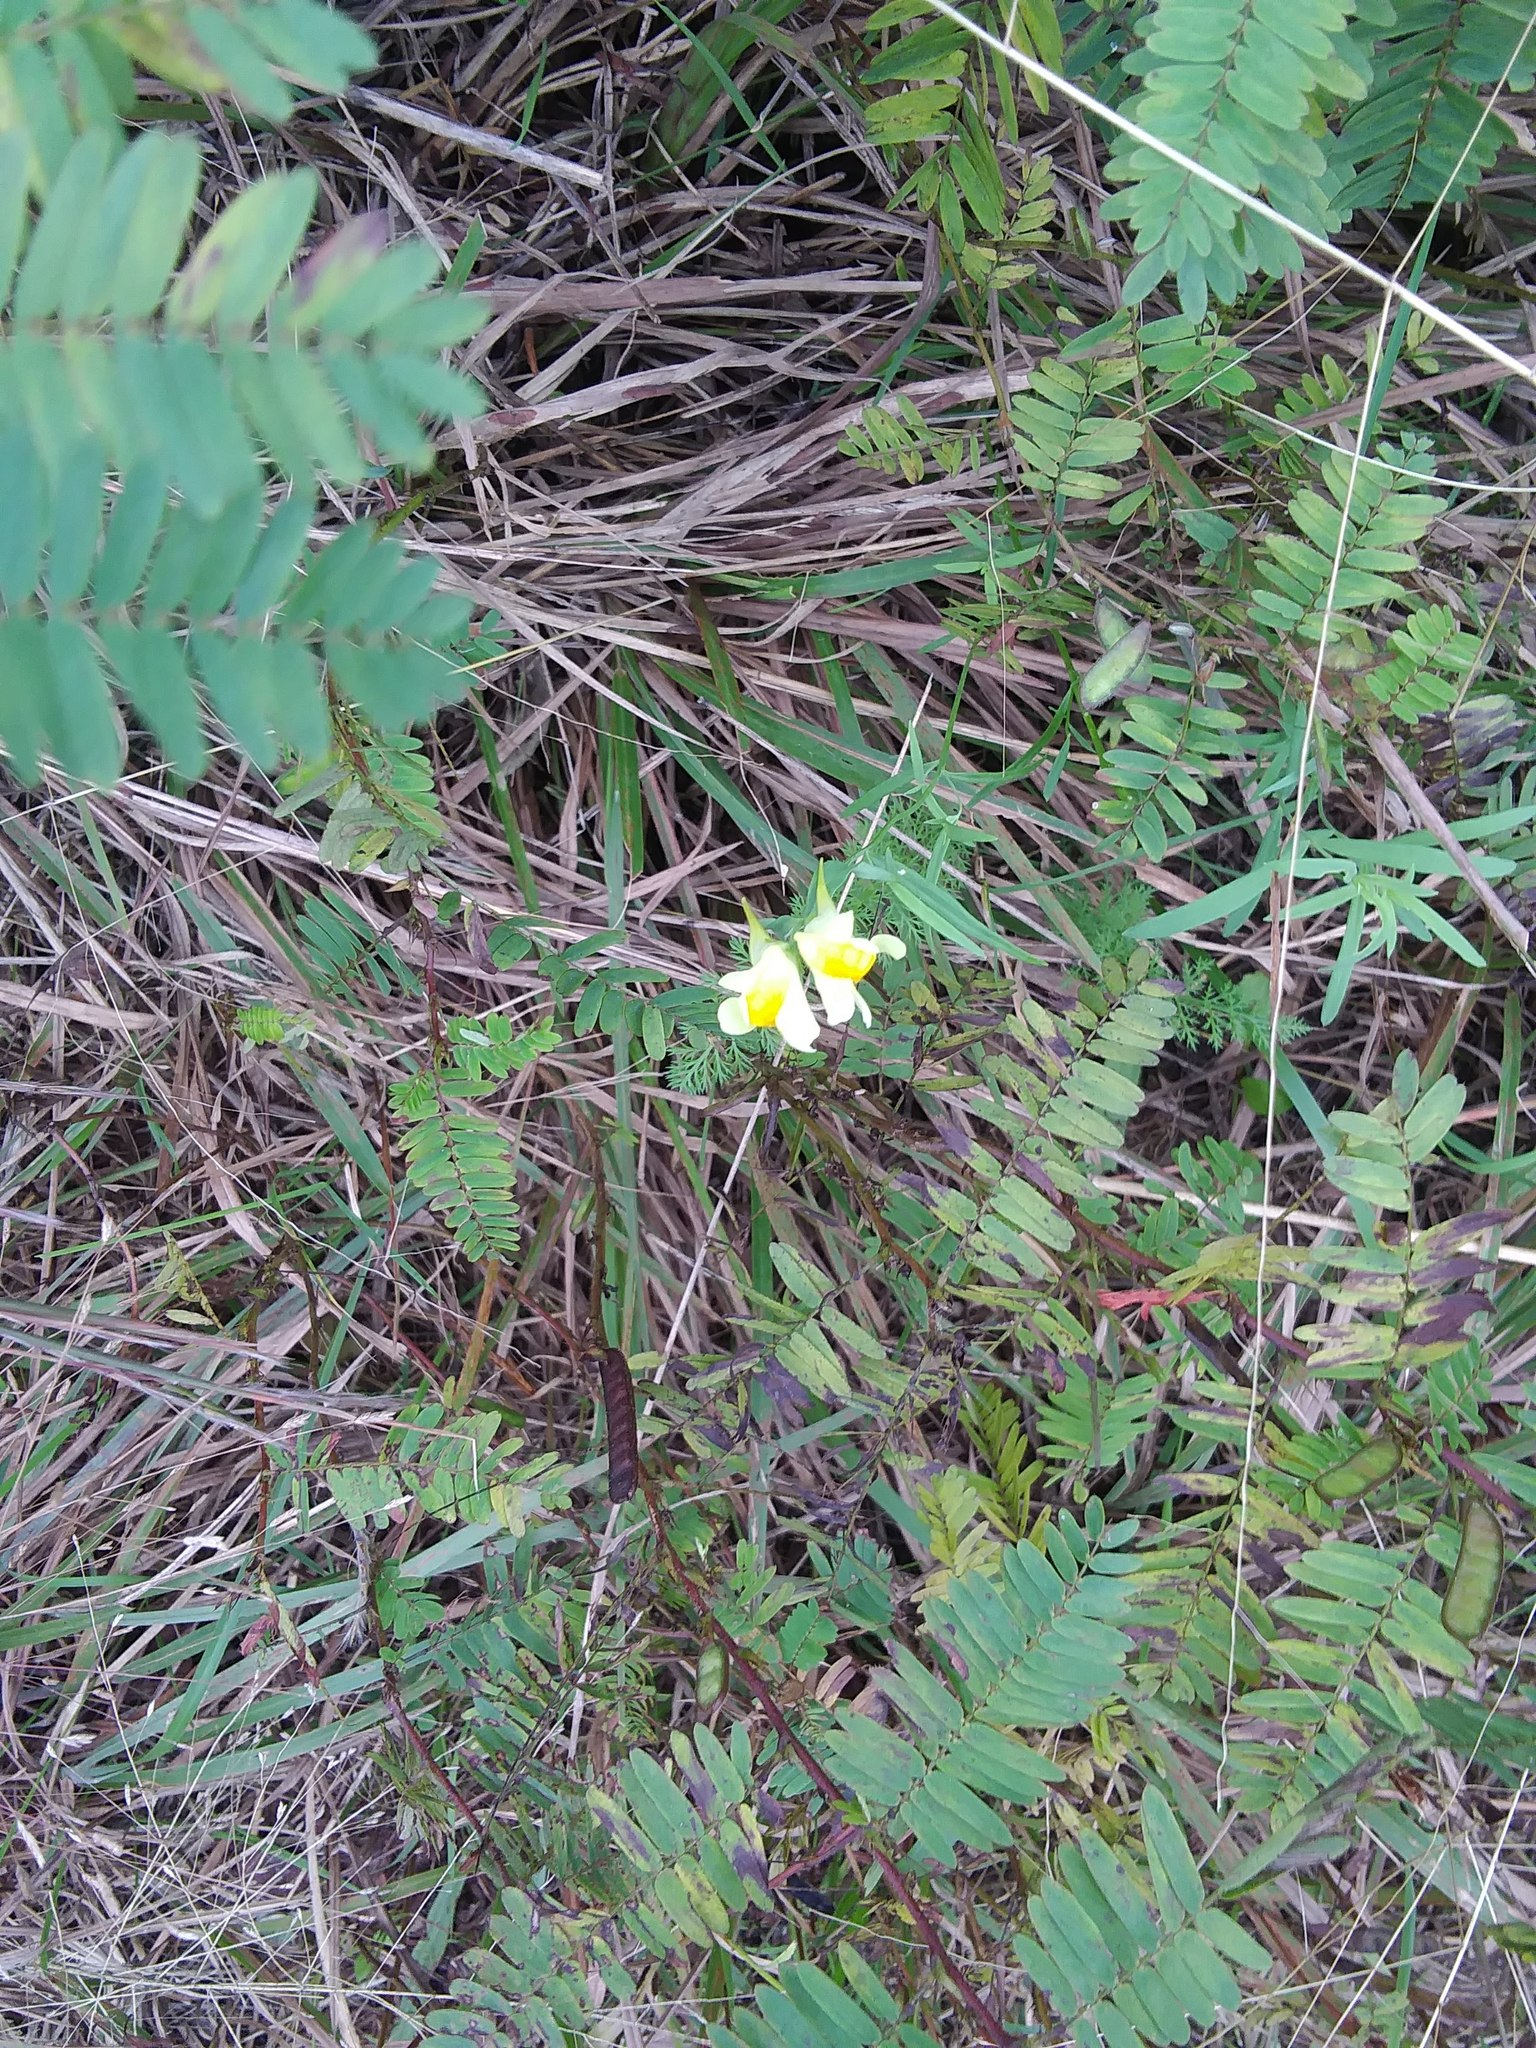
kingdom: Plantae
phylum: Tracheophyta
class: Magnoliopsida
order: Lamiales
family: Plantaginaceae
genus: Linaria
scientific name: Linaria vulgaris
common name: Butter and eggs
